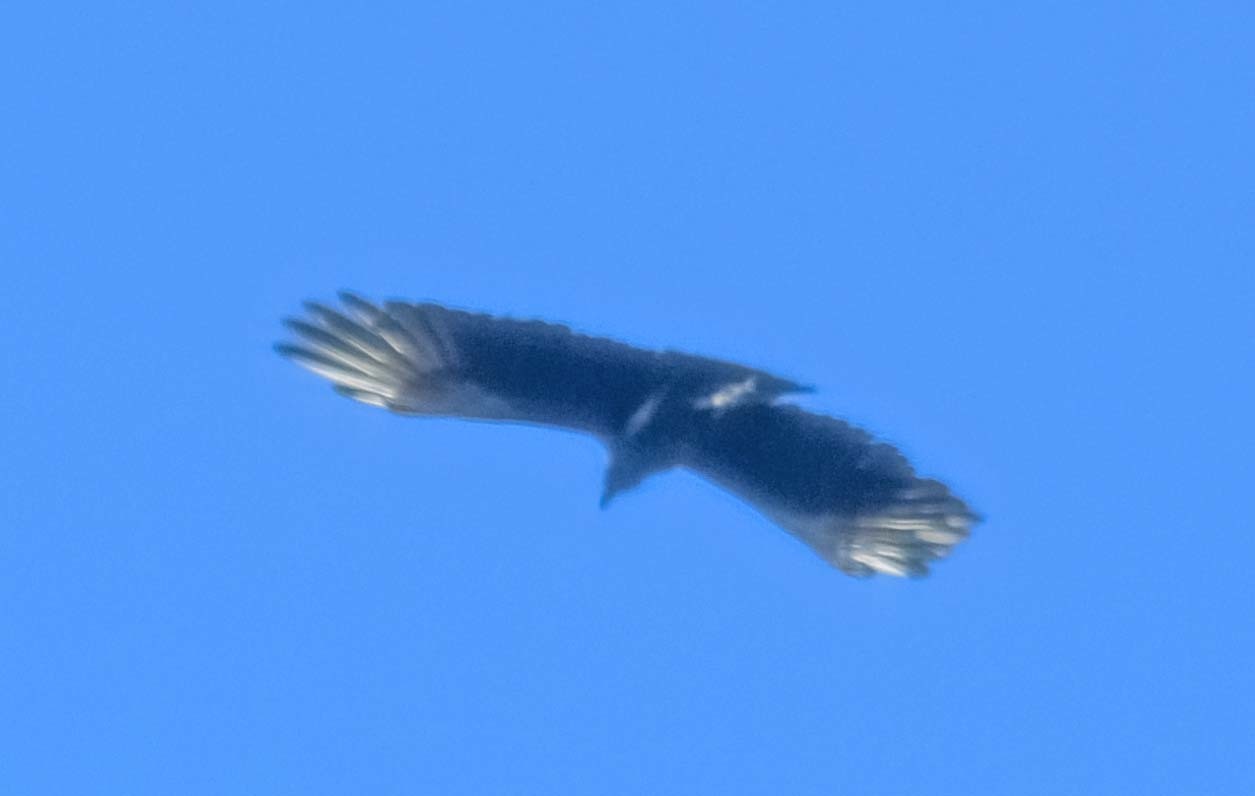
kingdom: Animalia
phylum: Chordata
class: Aves
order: Accipitriformes
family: Cathartidae
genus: Coragyps
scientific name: Coragyps atratus
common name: Black vulture
